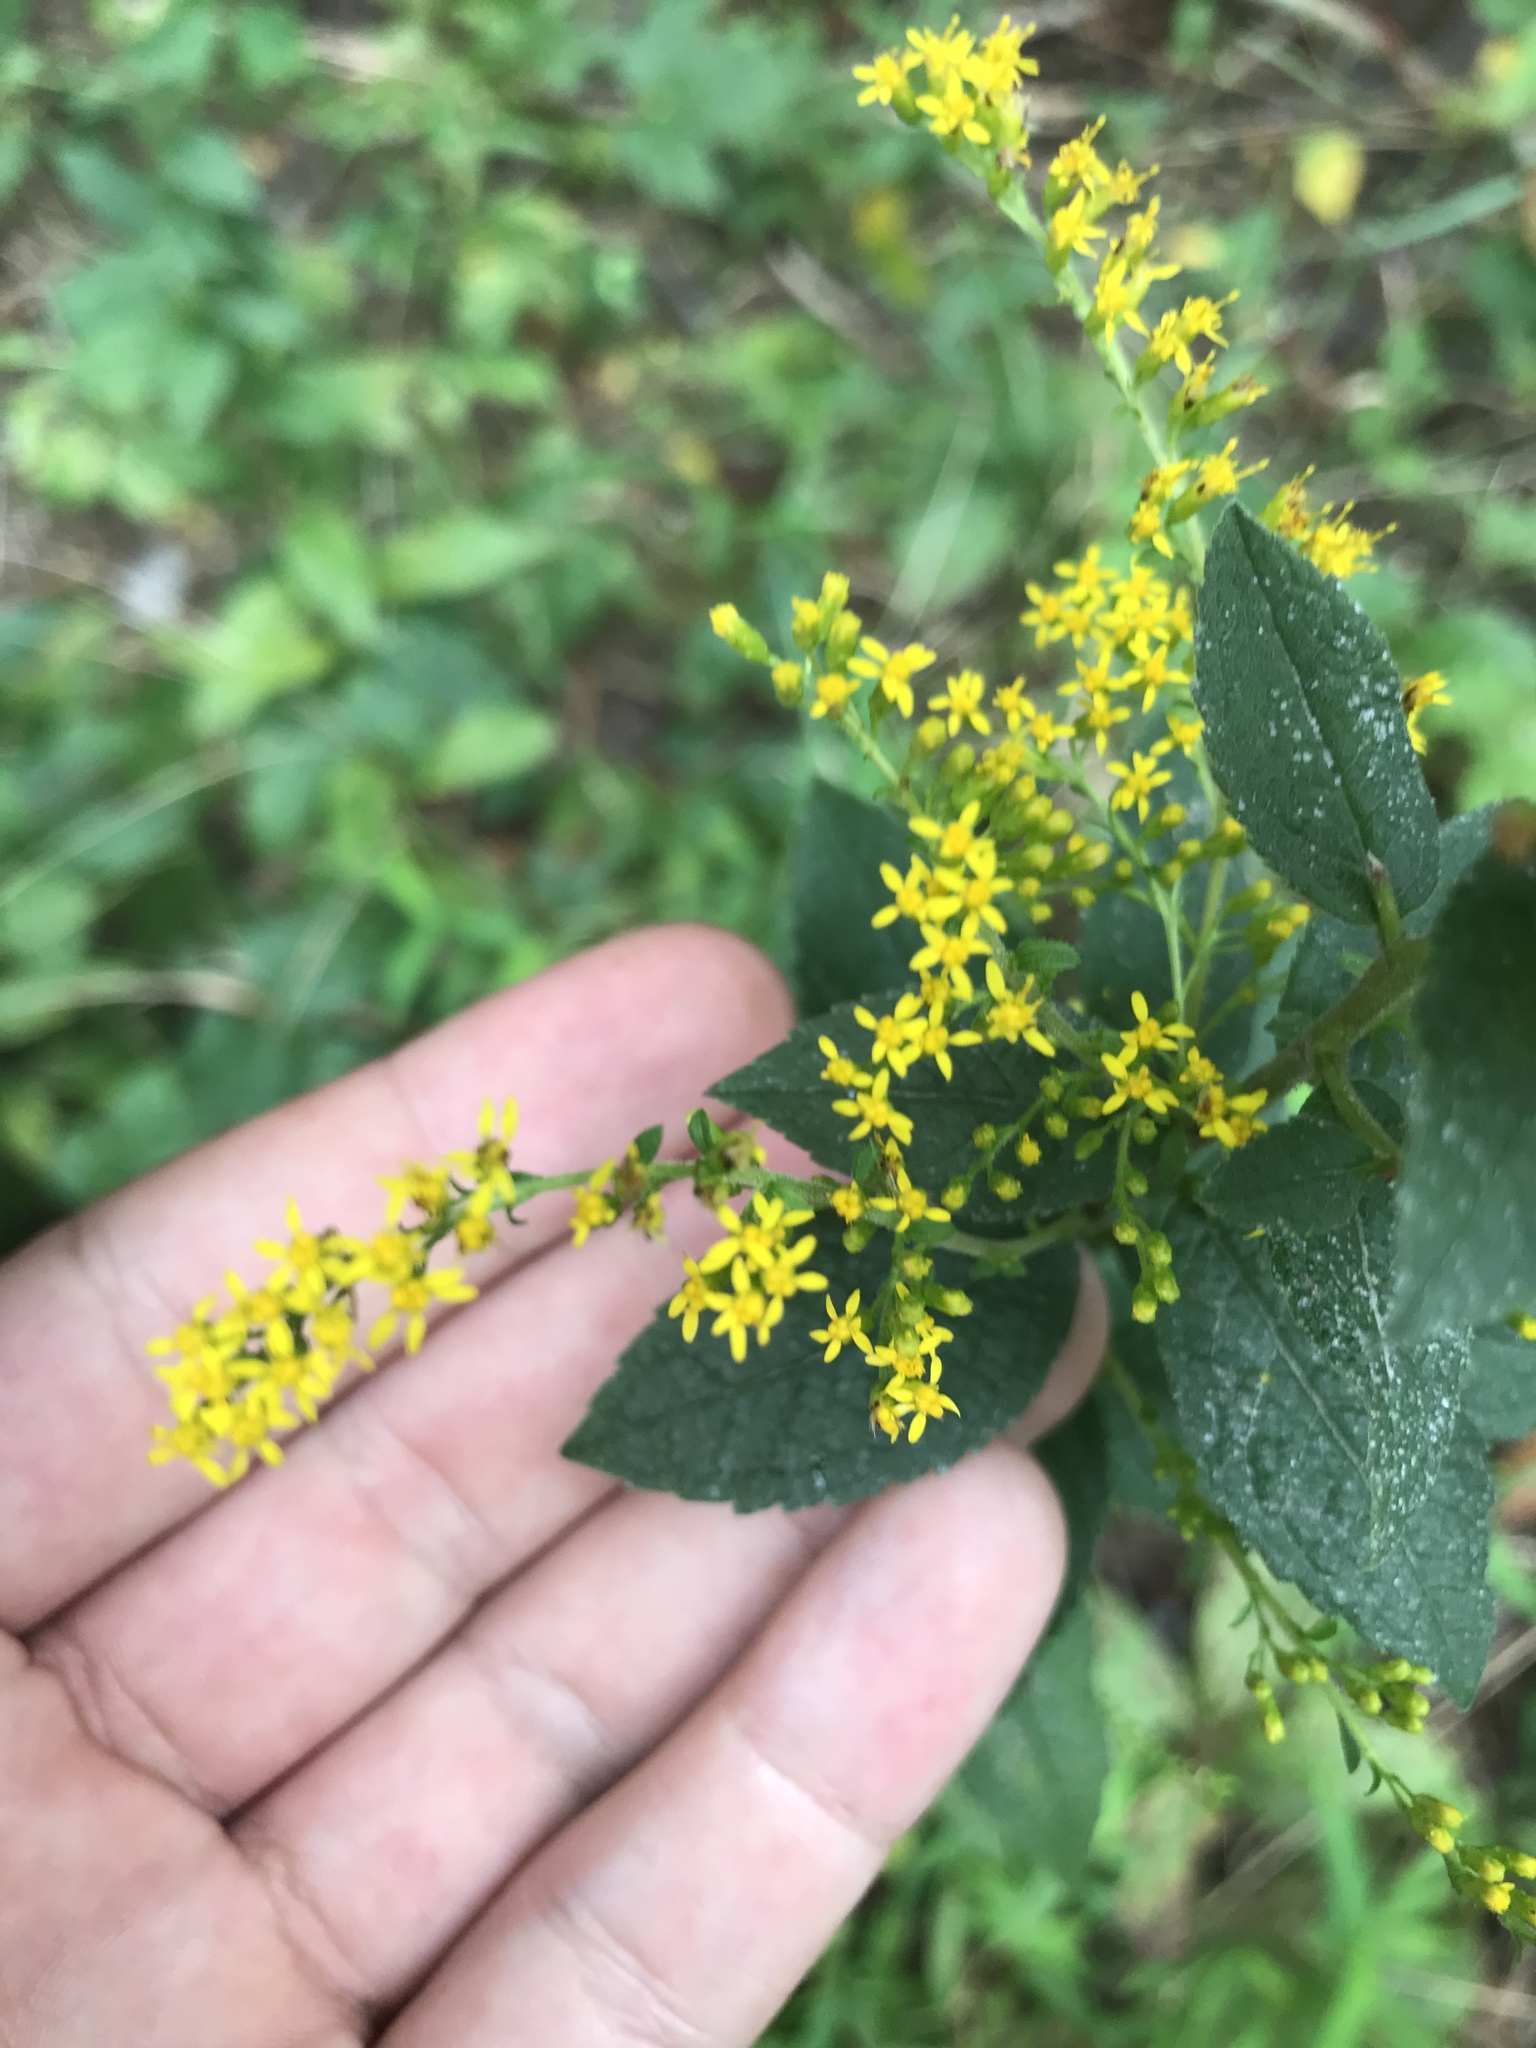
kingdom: Plantae
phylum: Tracheophyta
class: Magnoliopsida
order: Asterales
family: Asteraceae
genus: Solidago
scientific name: Solidago rugosa
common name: Rough-stemmed goldenrod
